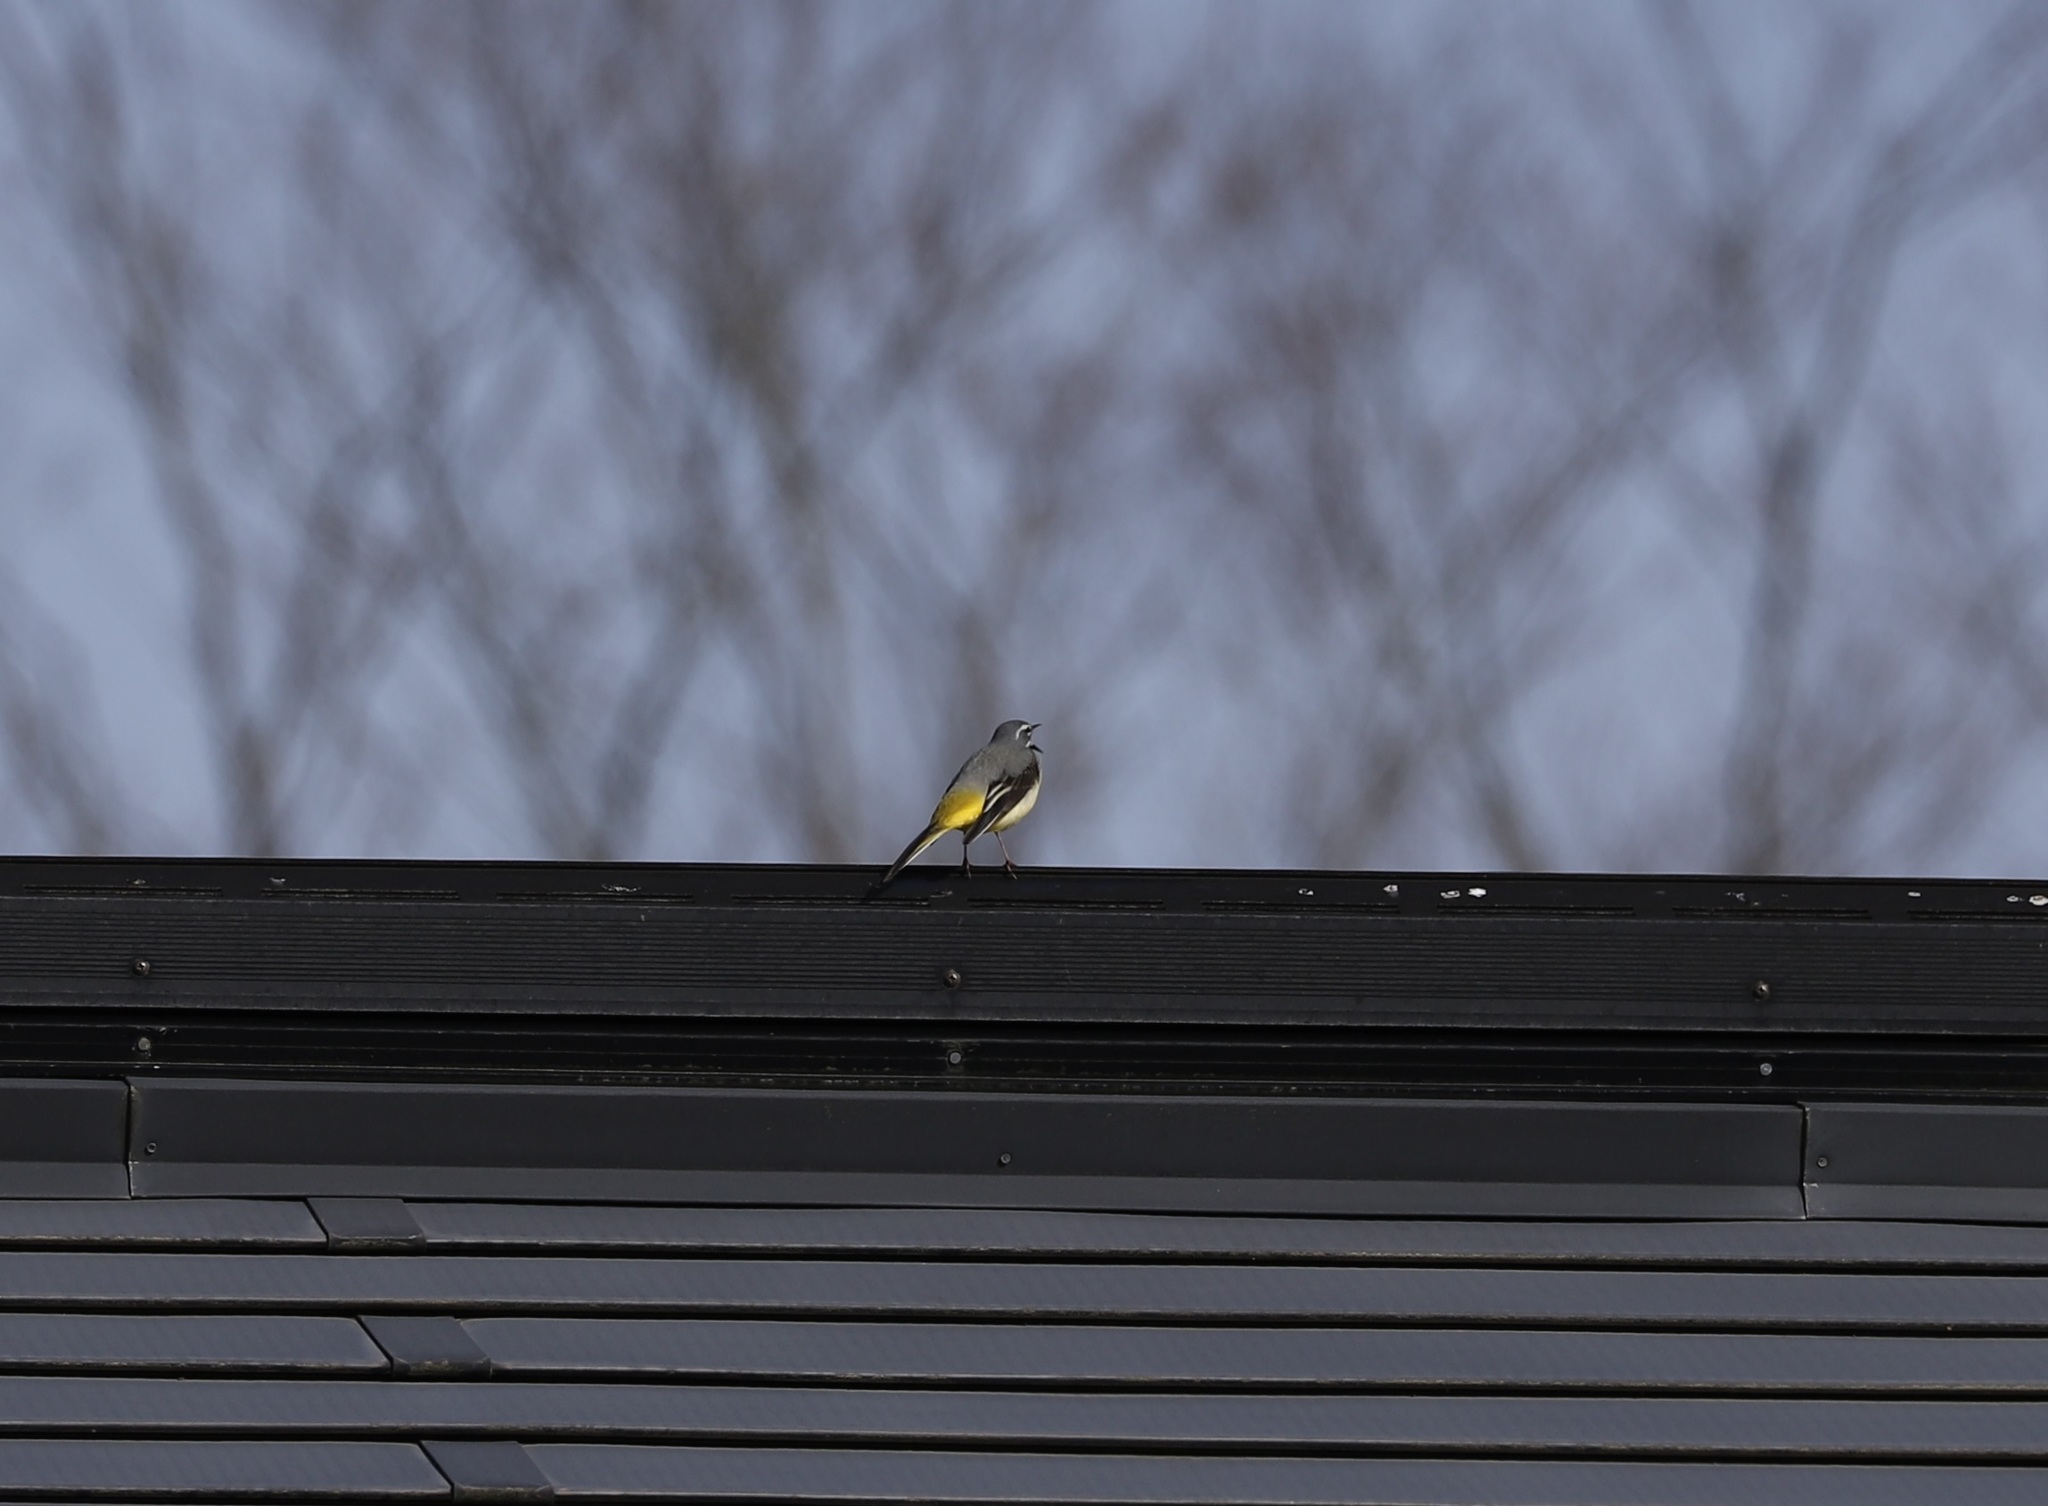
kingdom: Animalia
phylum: Chordata
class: Aves
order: Passeriformes
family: Motacillidae
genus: Motacilla
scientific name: Motacilla cinerea
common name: Grey wagtail
